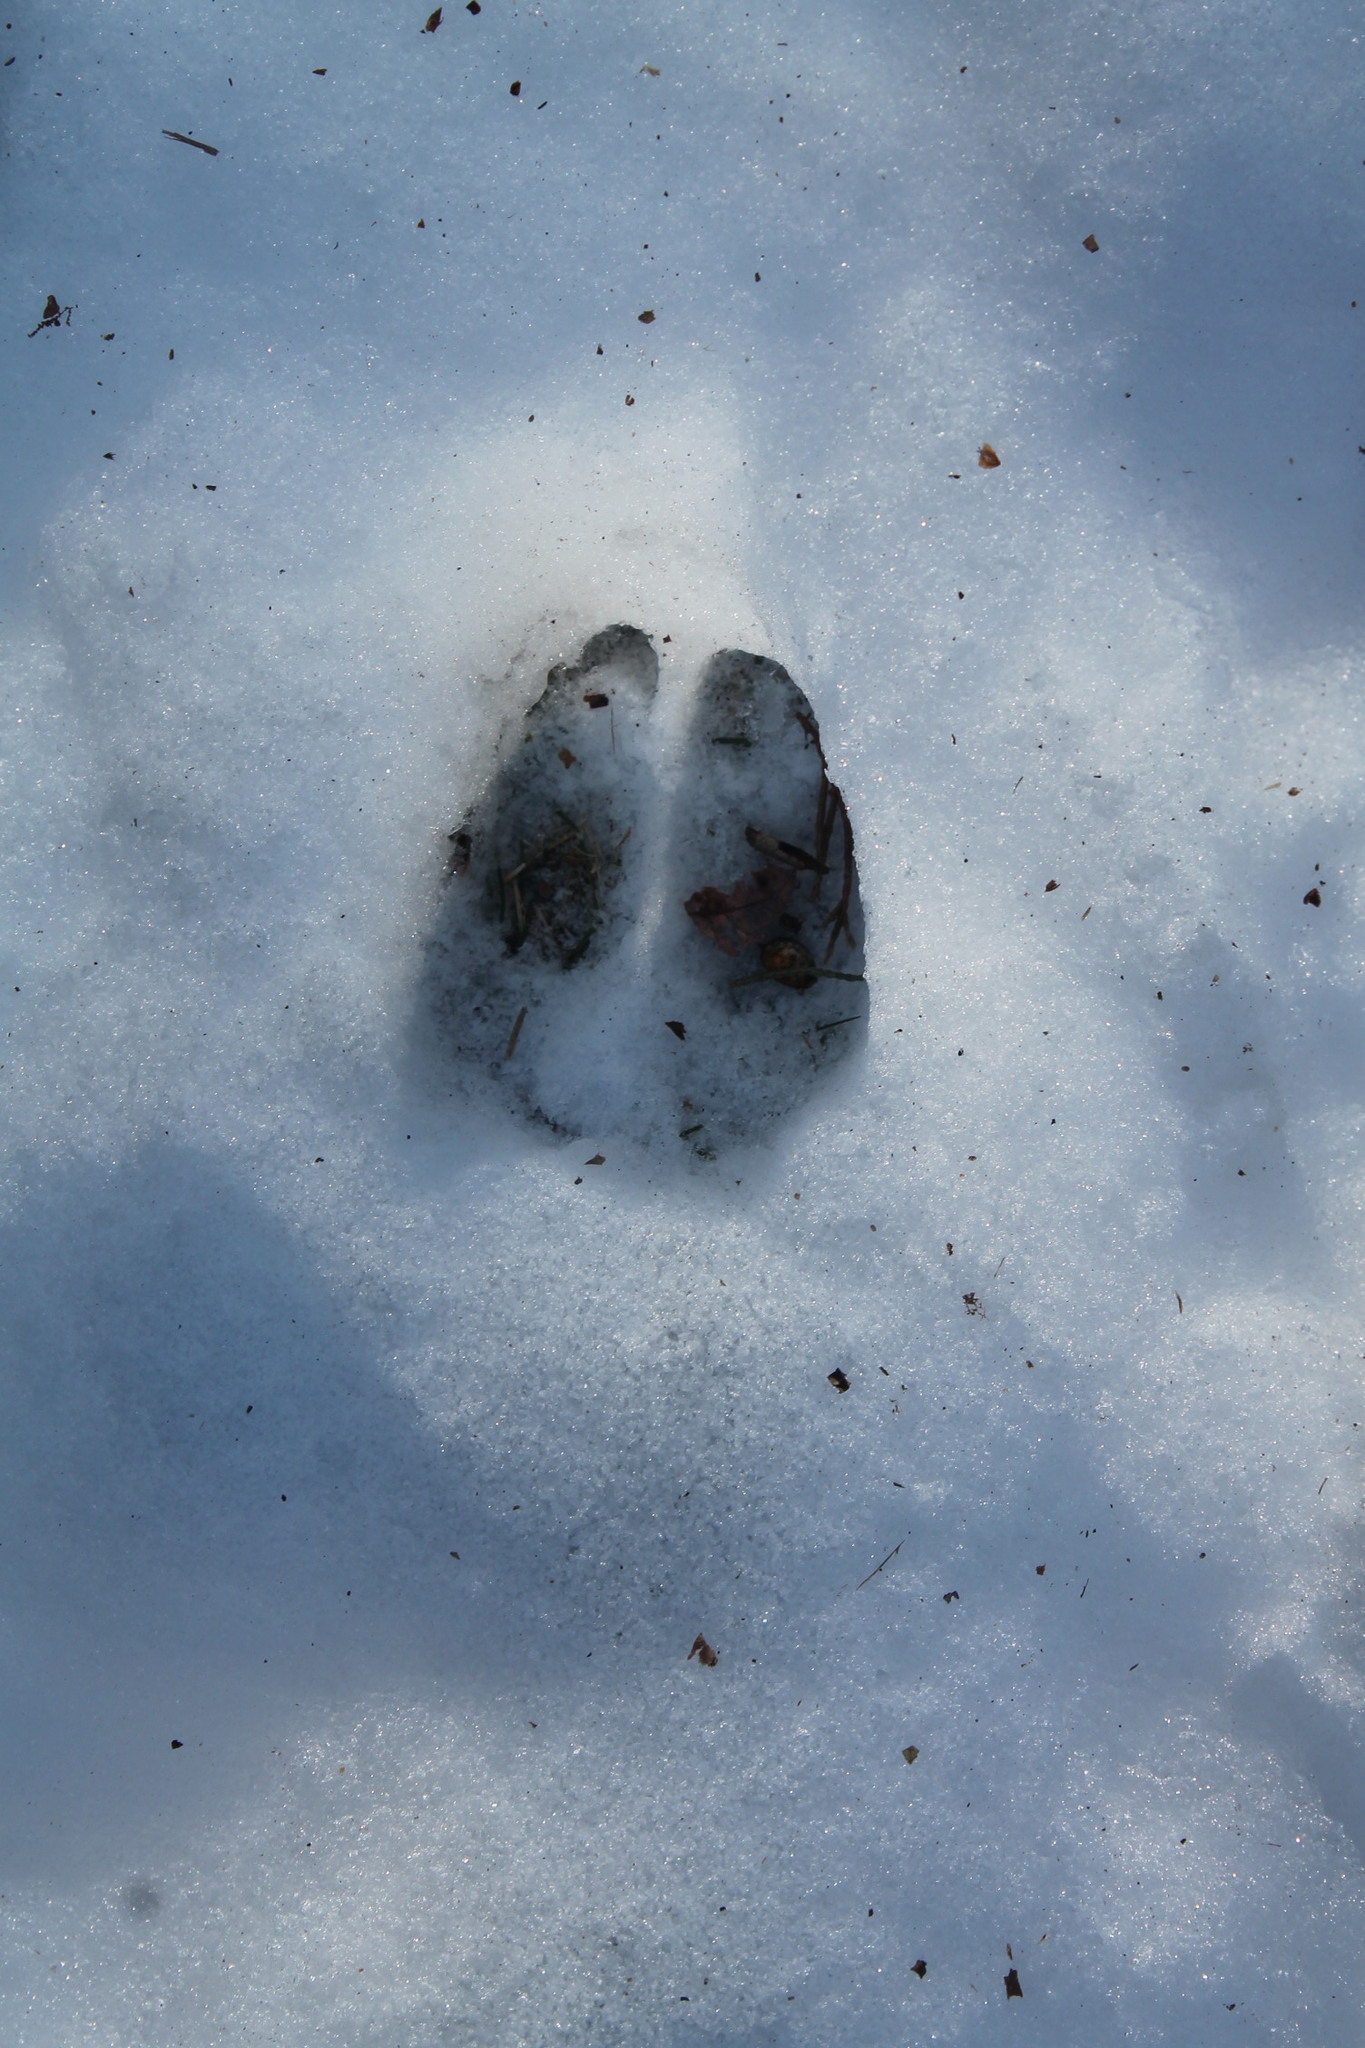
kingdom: Animalia
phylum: Chordata
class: Mammalia
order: Artiodactyla
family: Cervidae
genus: Odocoileus
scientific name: Odocoileus virginianus
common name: White-tailed deer
